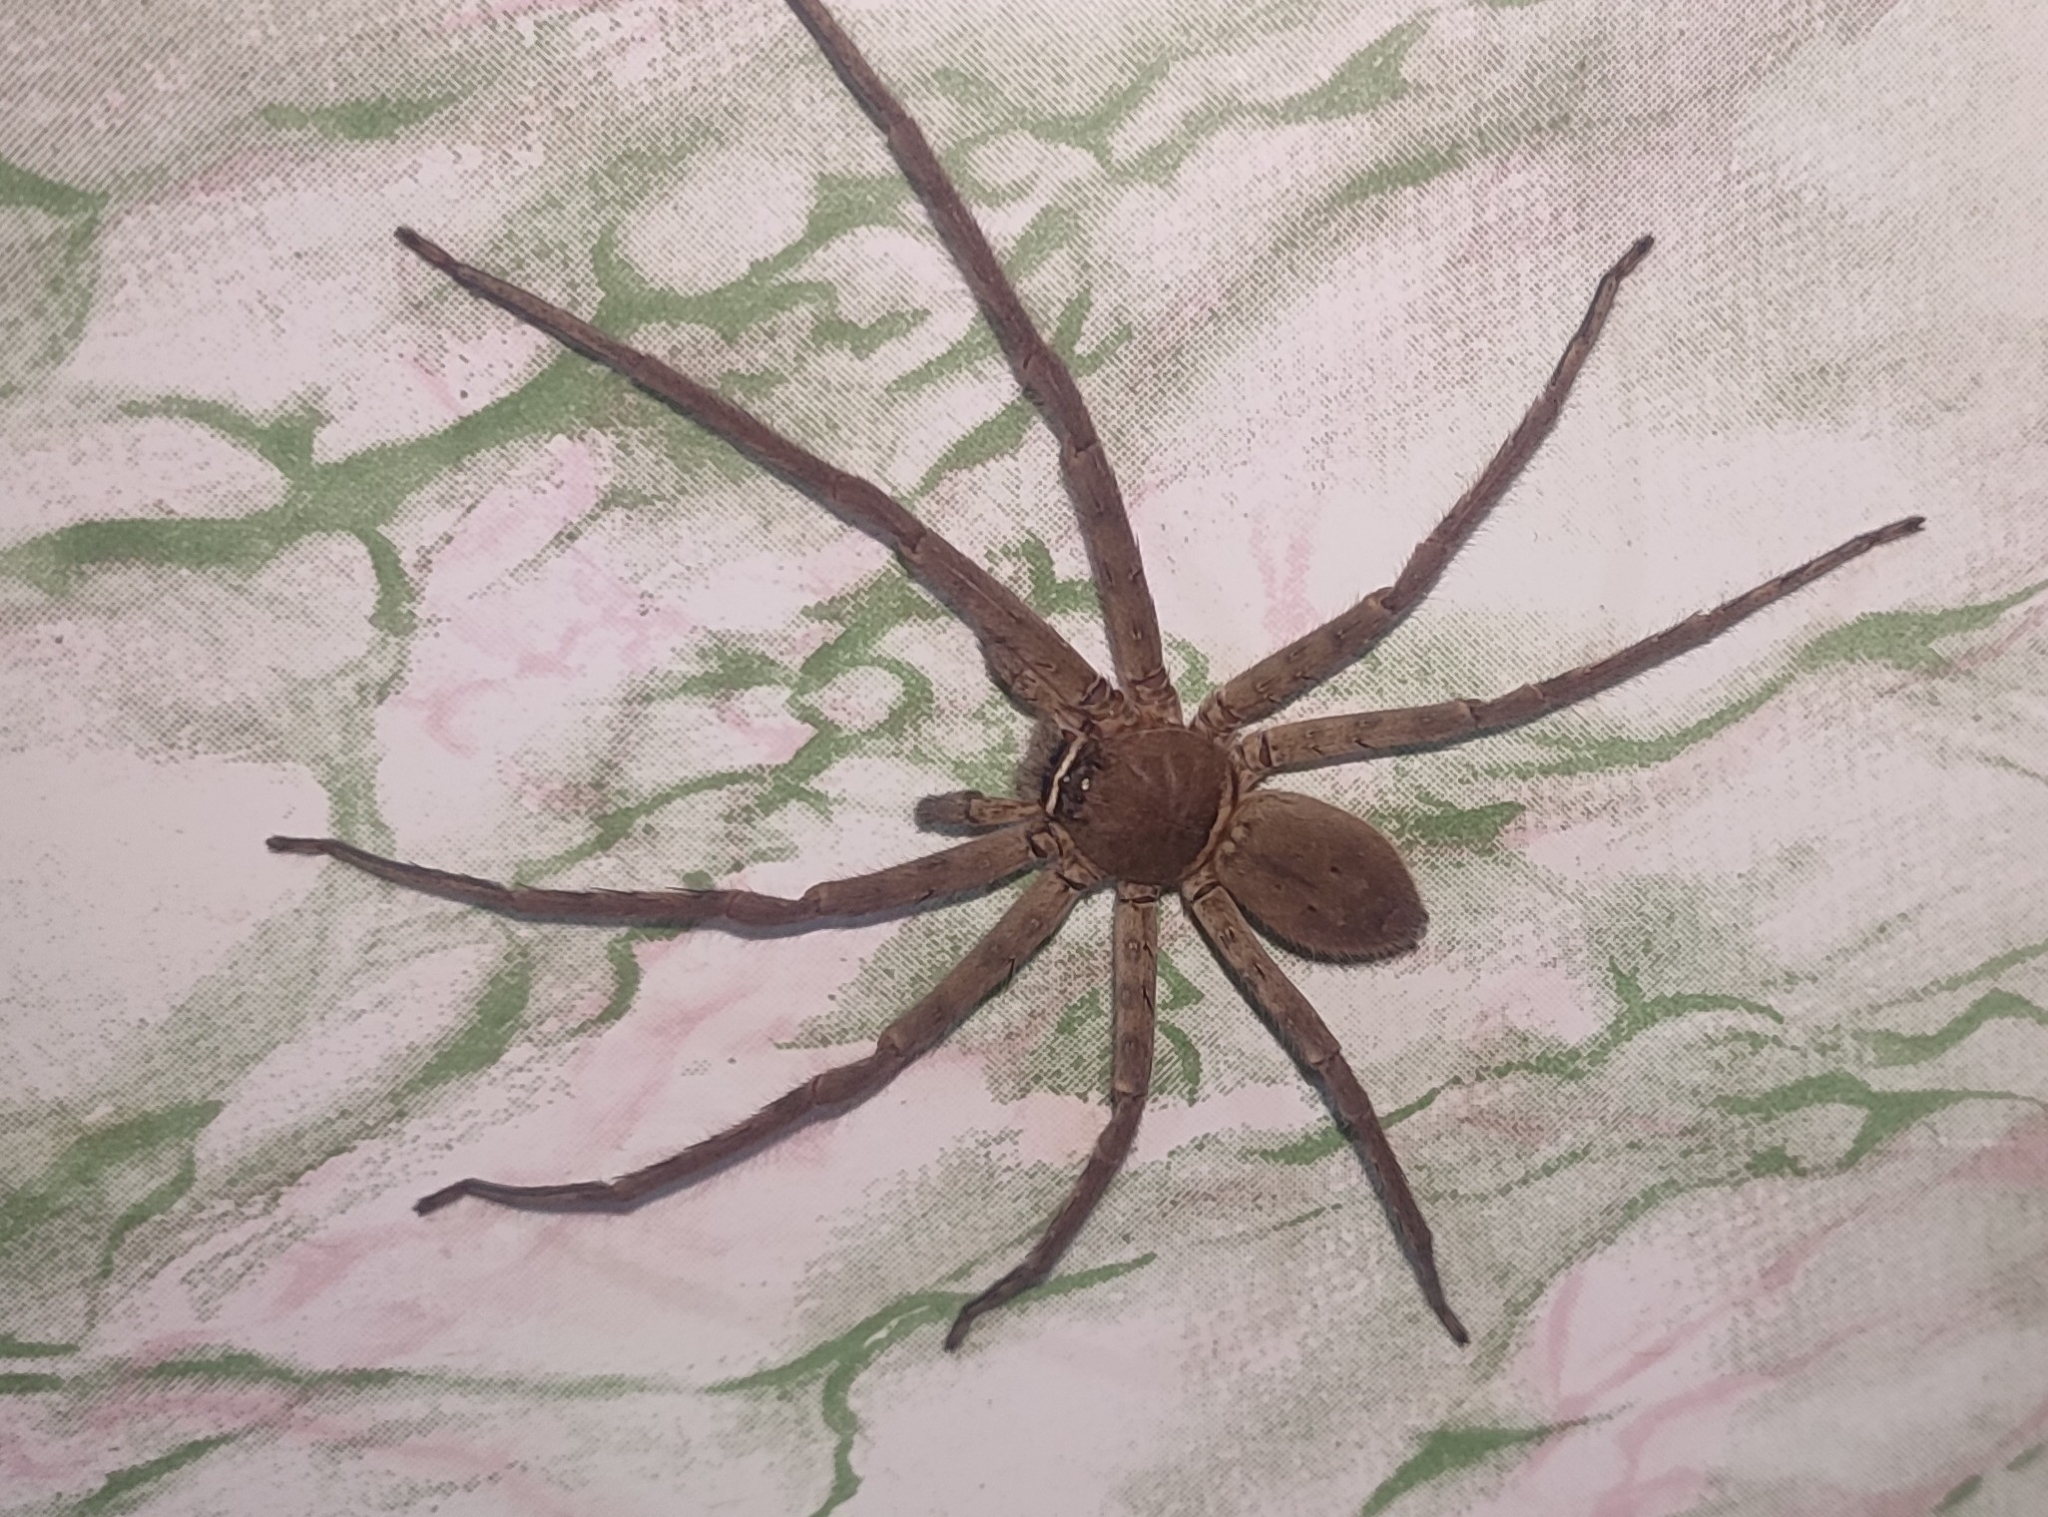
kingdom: Animalia
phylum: Arthropoda
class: Arachnida
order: Araneae
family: Sparassidae
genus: Heteropoda
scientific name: Heteropoda venatoria
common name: Huntsman spider
